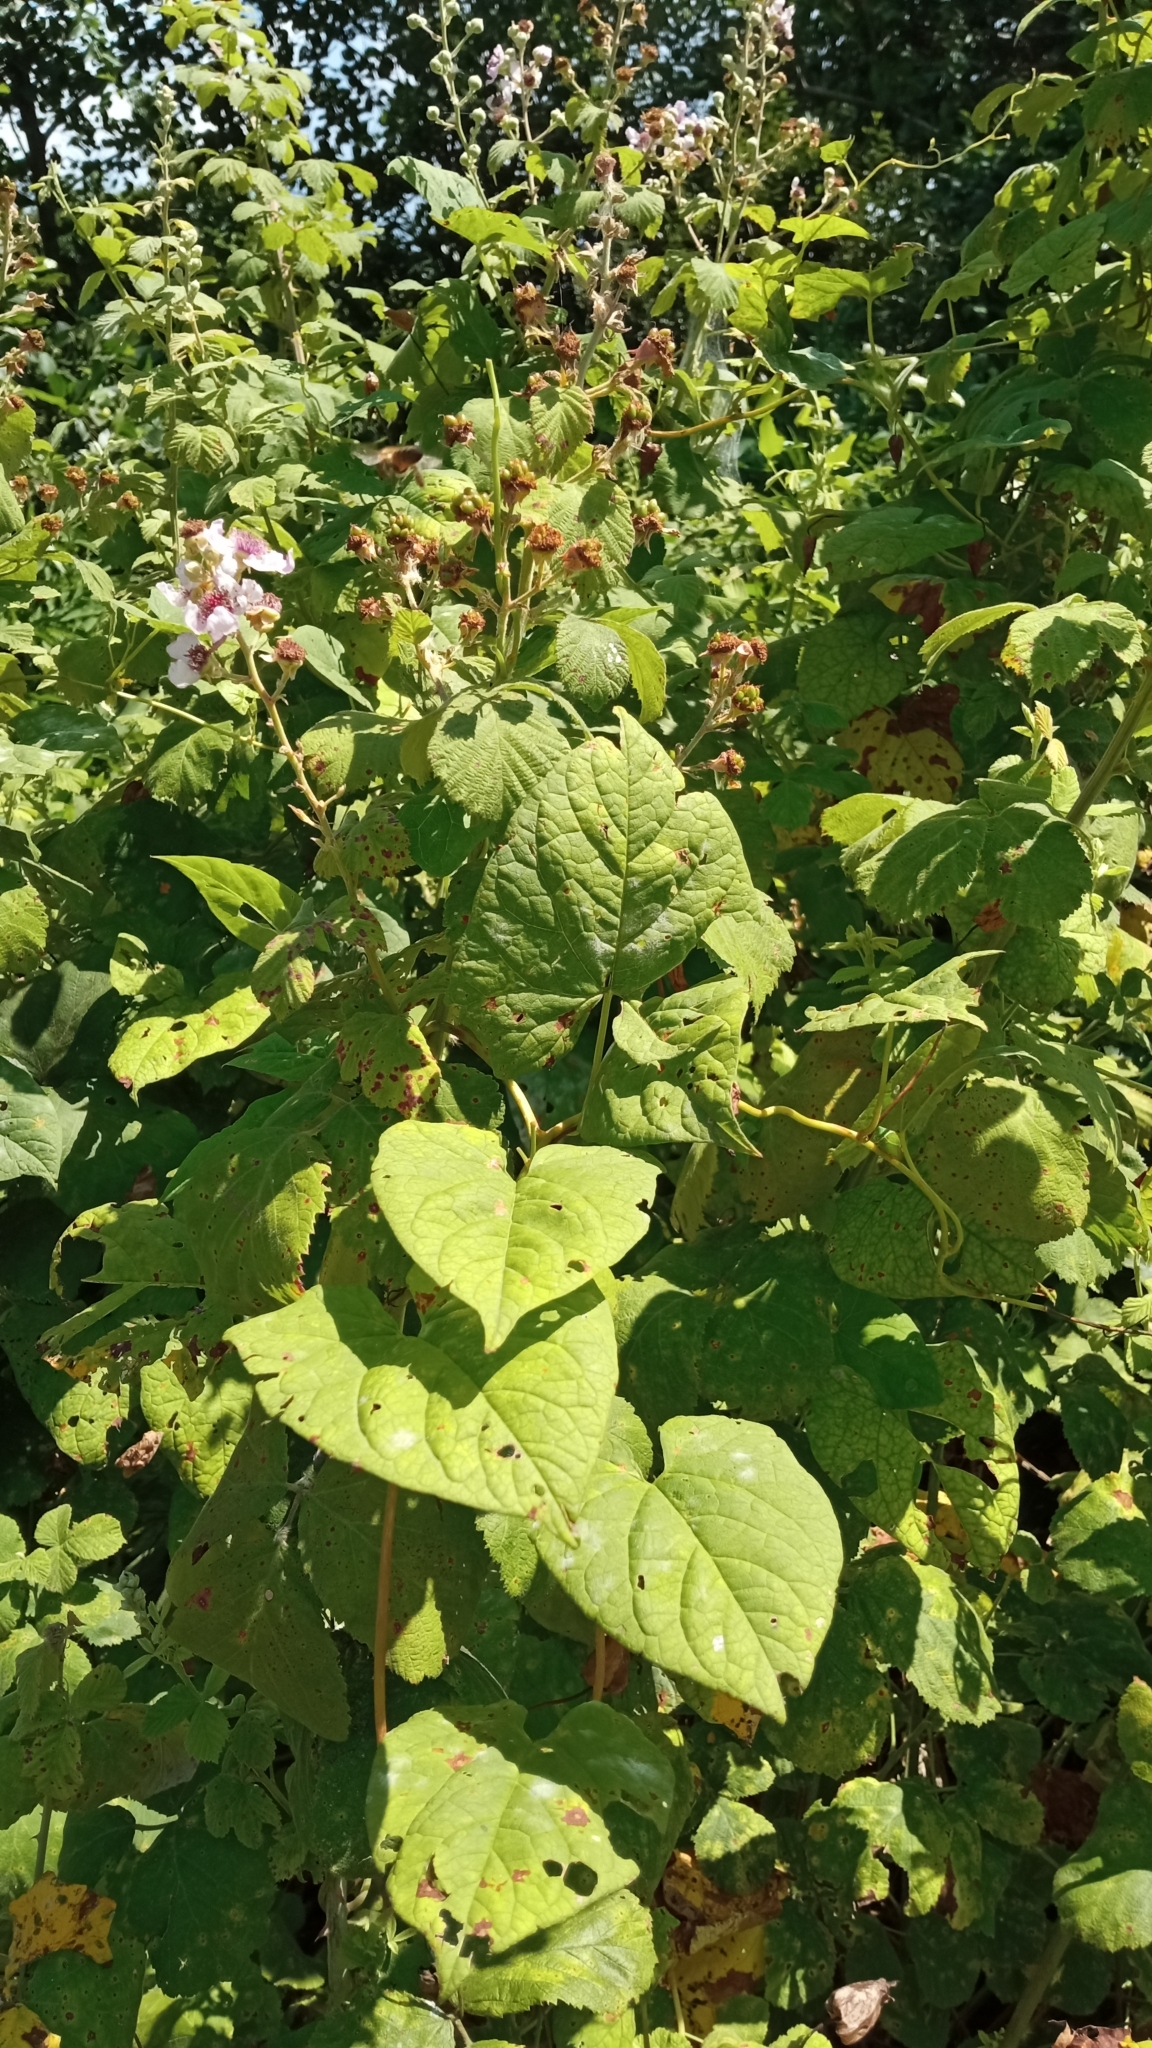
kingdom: Plantae
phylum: Tracheophyta
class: Magnoliopsida
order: Rosales
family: Rosaceae
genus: Rubus
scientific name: Rubus sanctus
